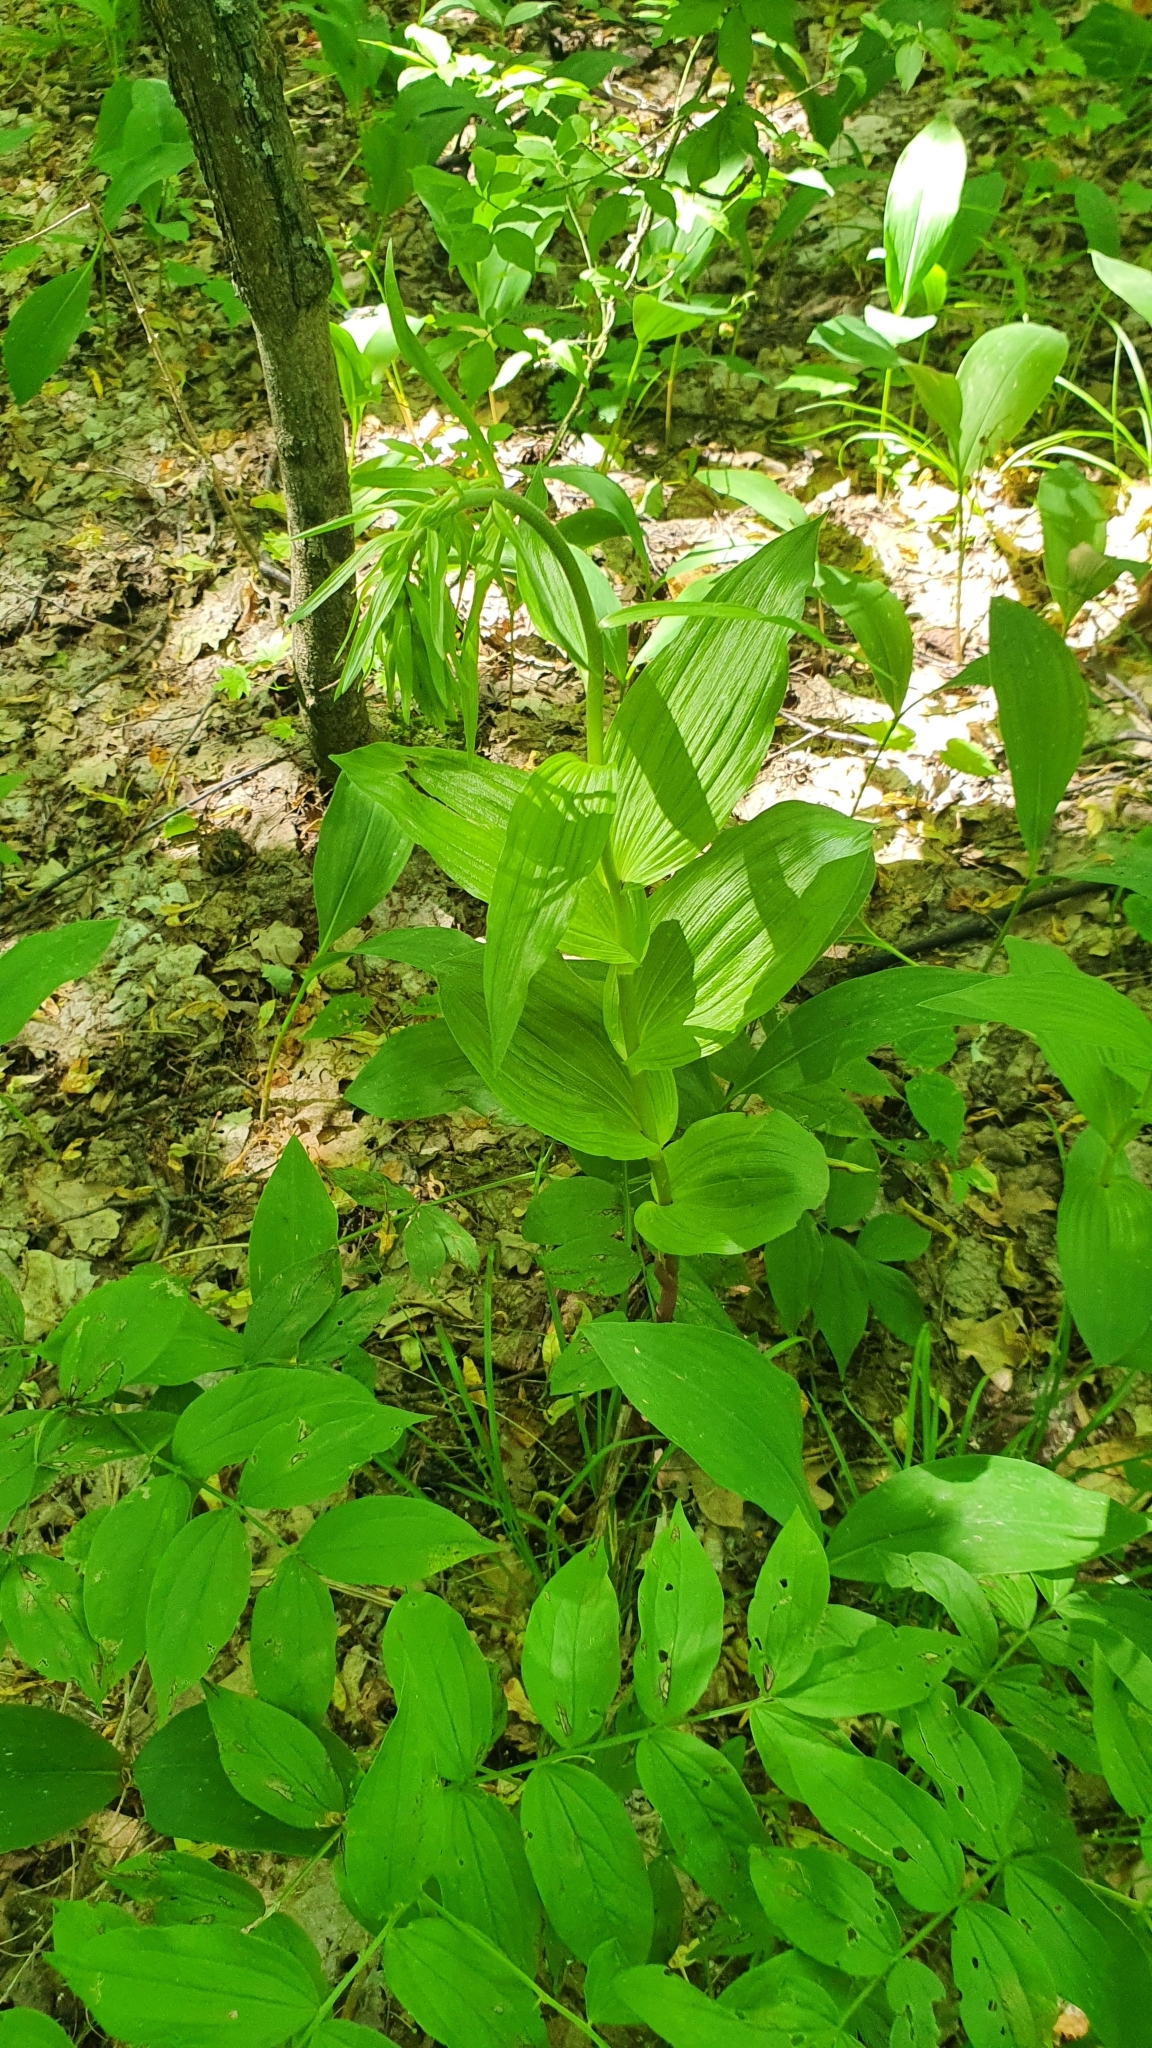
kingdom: Plantae
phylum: Tracheophyta
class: Liliopsida
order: Asparagales
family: Orchidaceae
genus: Epipactis
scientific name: Epipactis helleborine
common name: Broad-leaved helleborine
